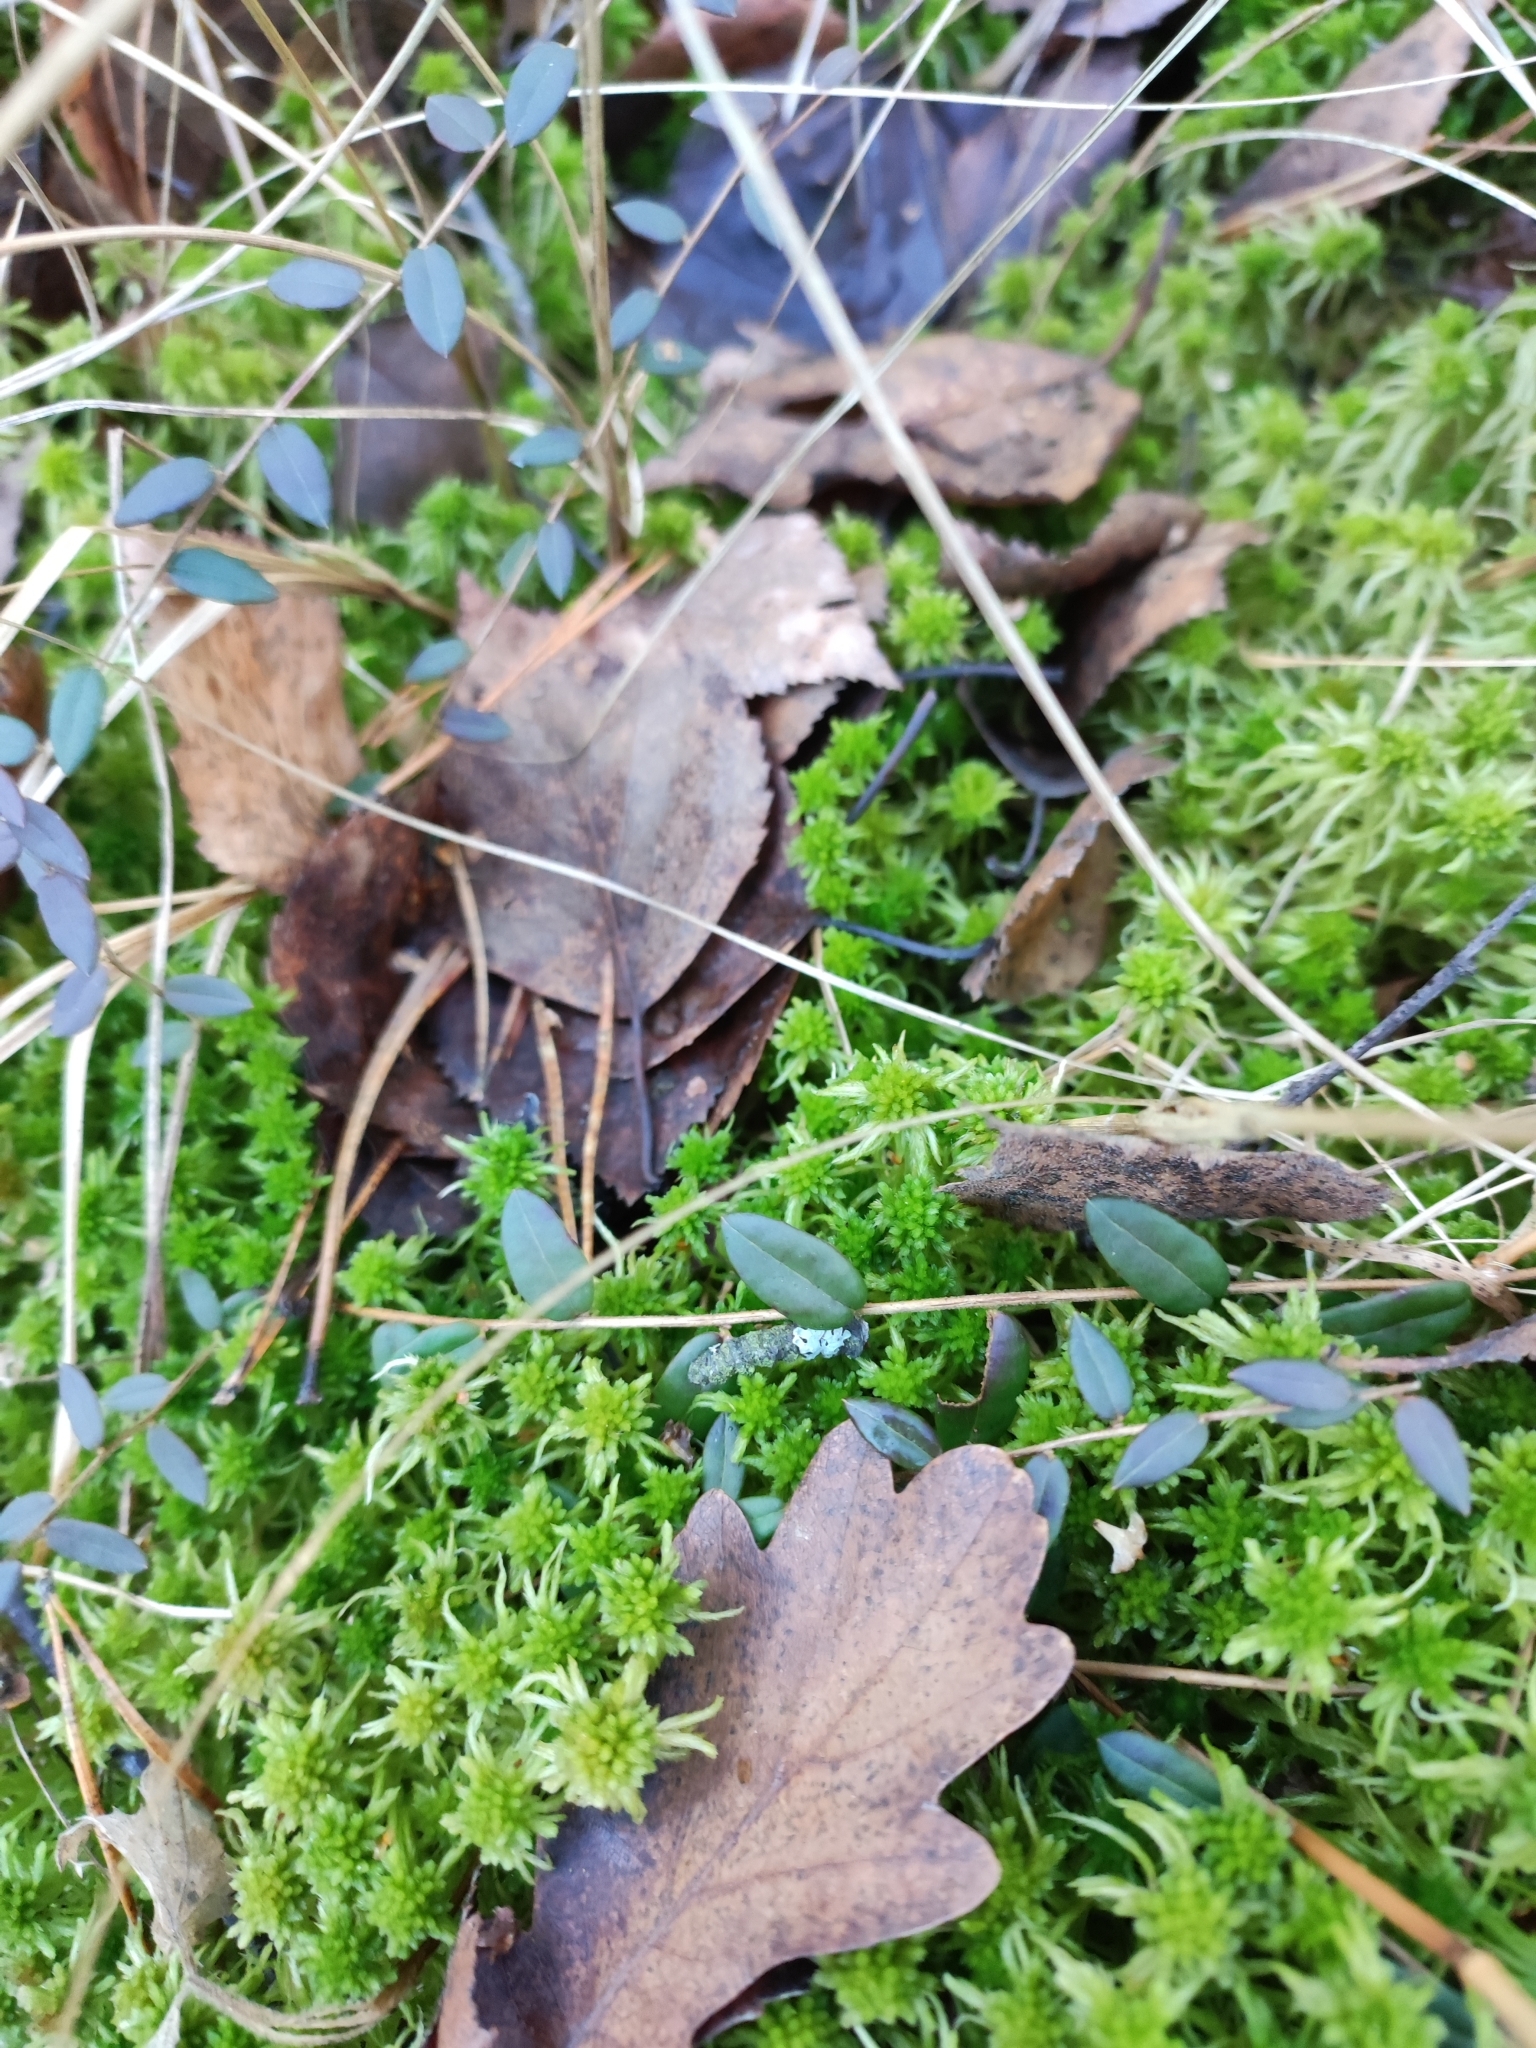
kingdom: Plantae
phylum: Tracheophyta
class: Magnoliopsida
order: Ericales
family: Ericaceae
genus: Vaccinium
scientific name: Vaccinium oxycoccos
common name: Cranberry
